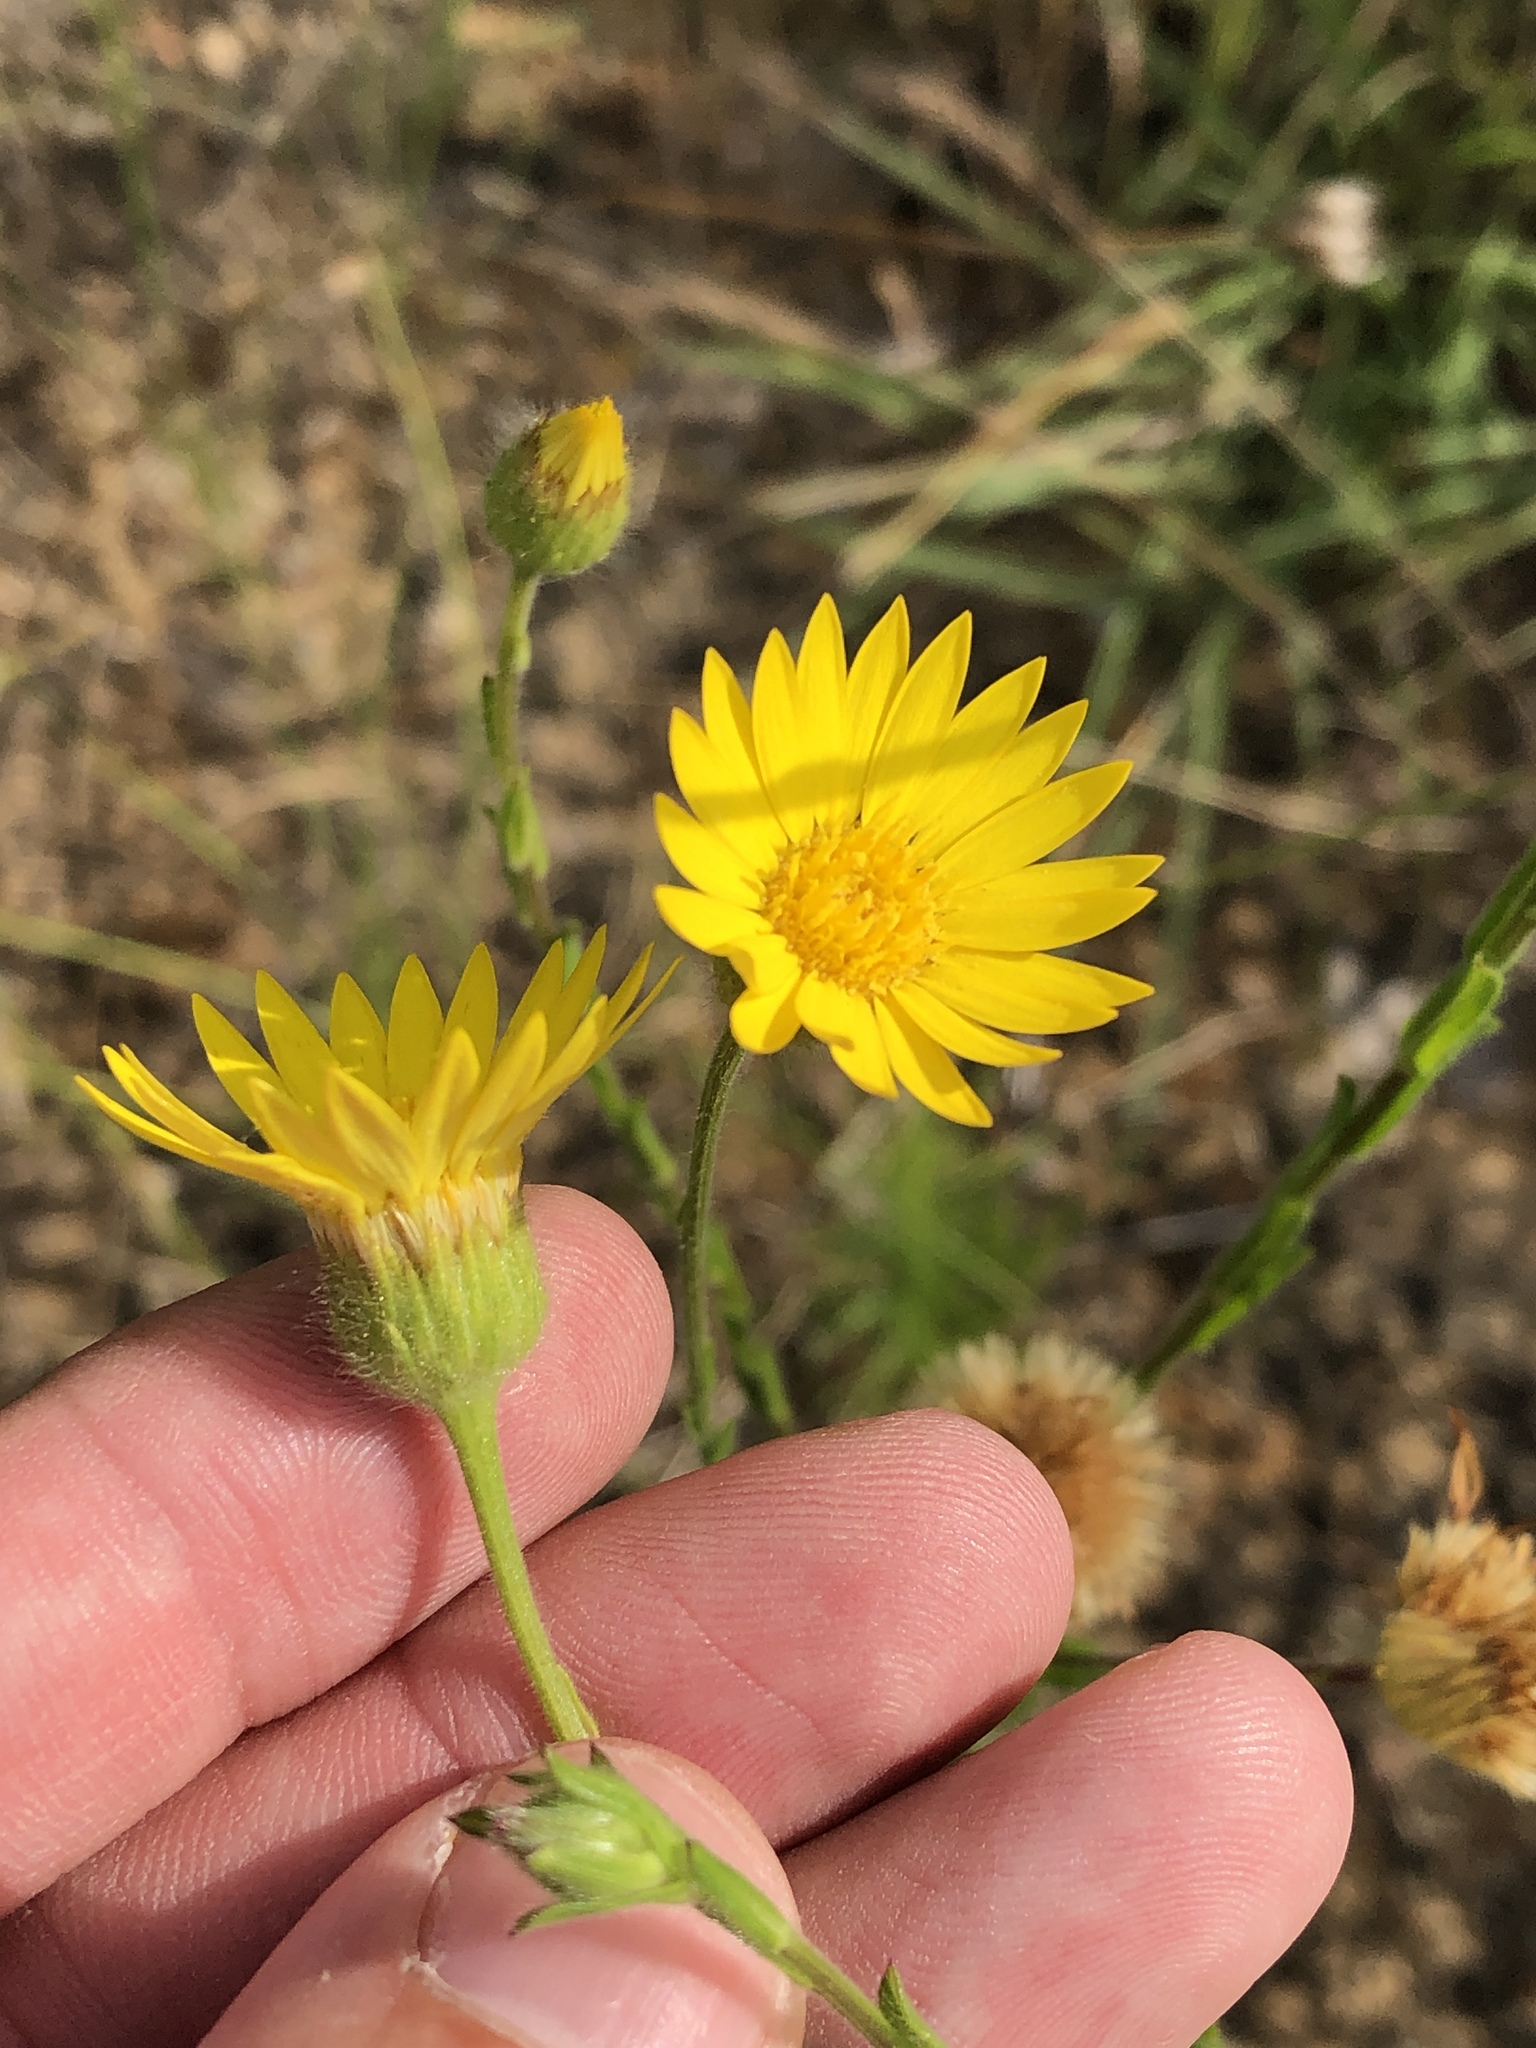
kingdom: Plantae
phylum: Tracheophyta
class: Magnoliopsida
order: Asterales
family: Asteraceae
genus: Bradburia
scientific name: Bradburia pilosa
